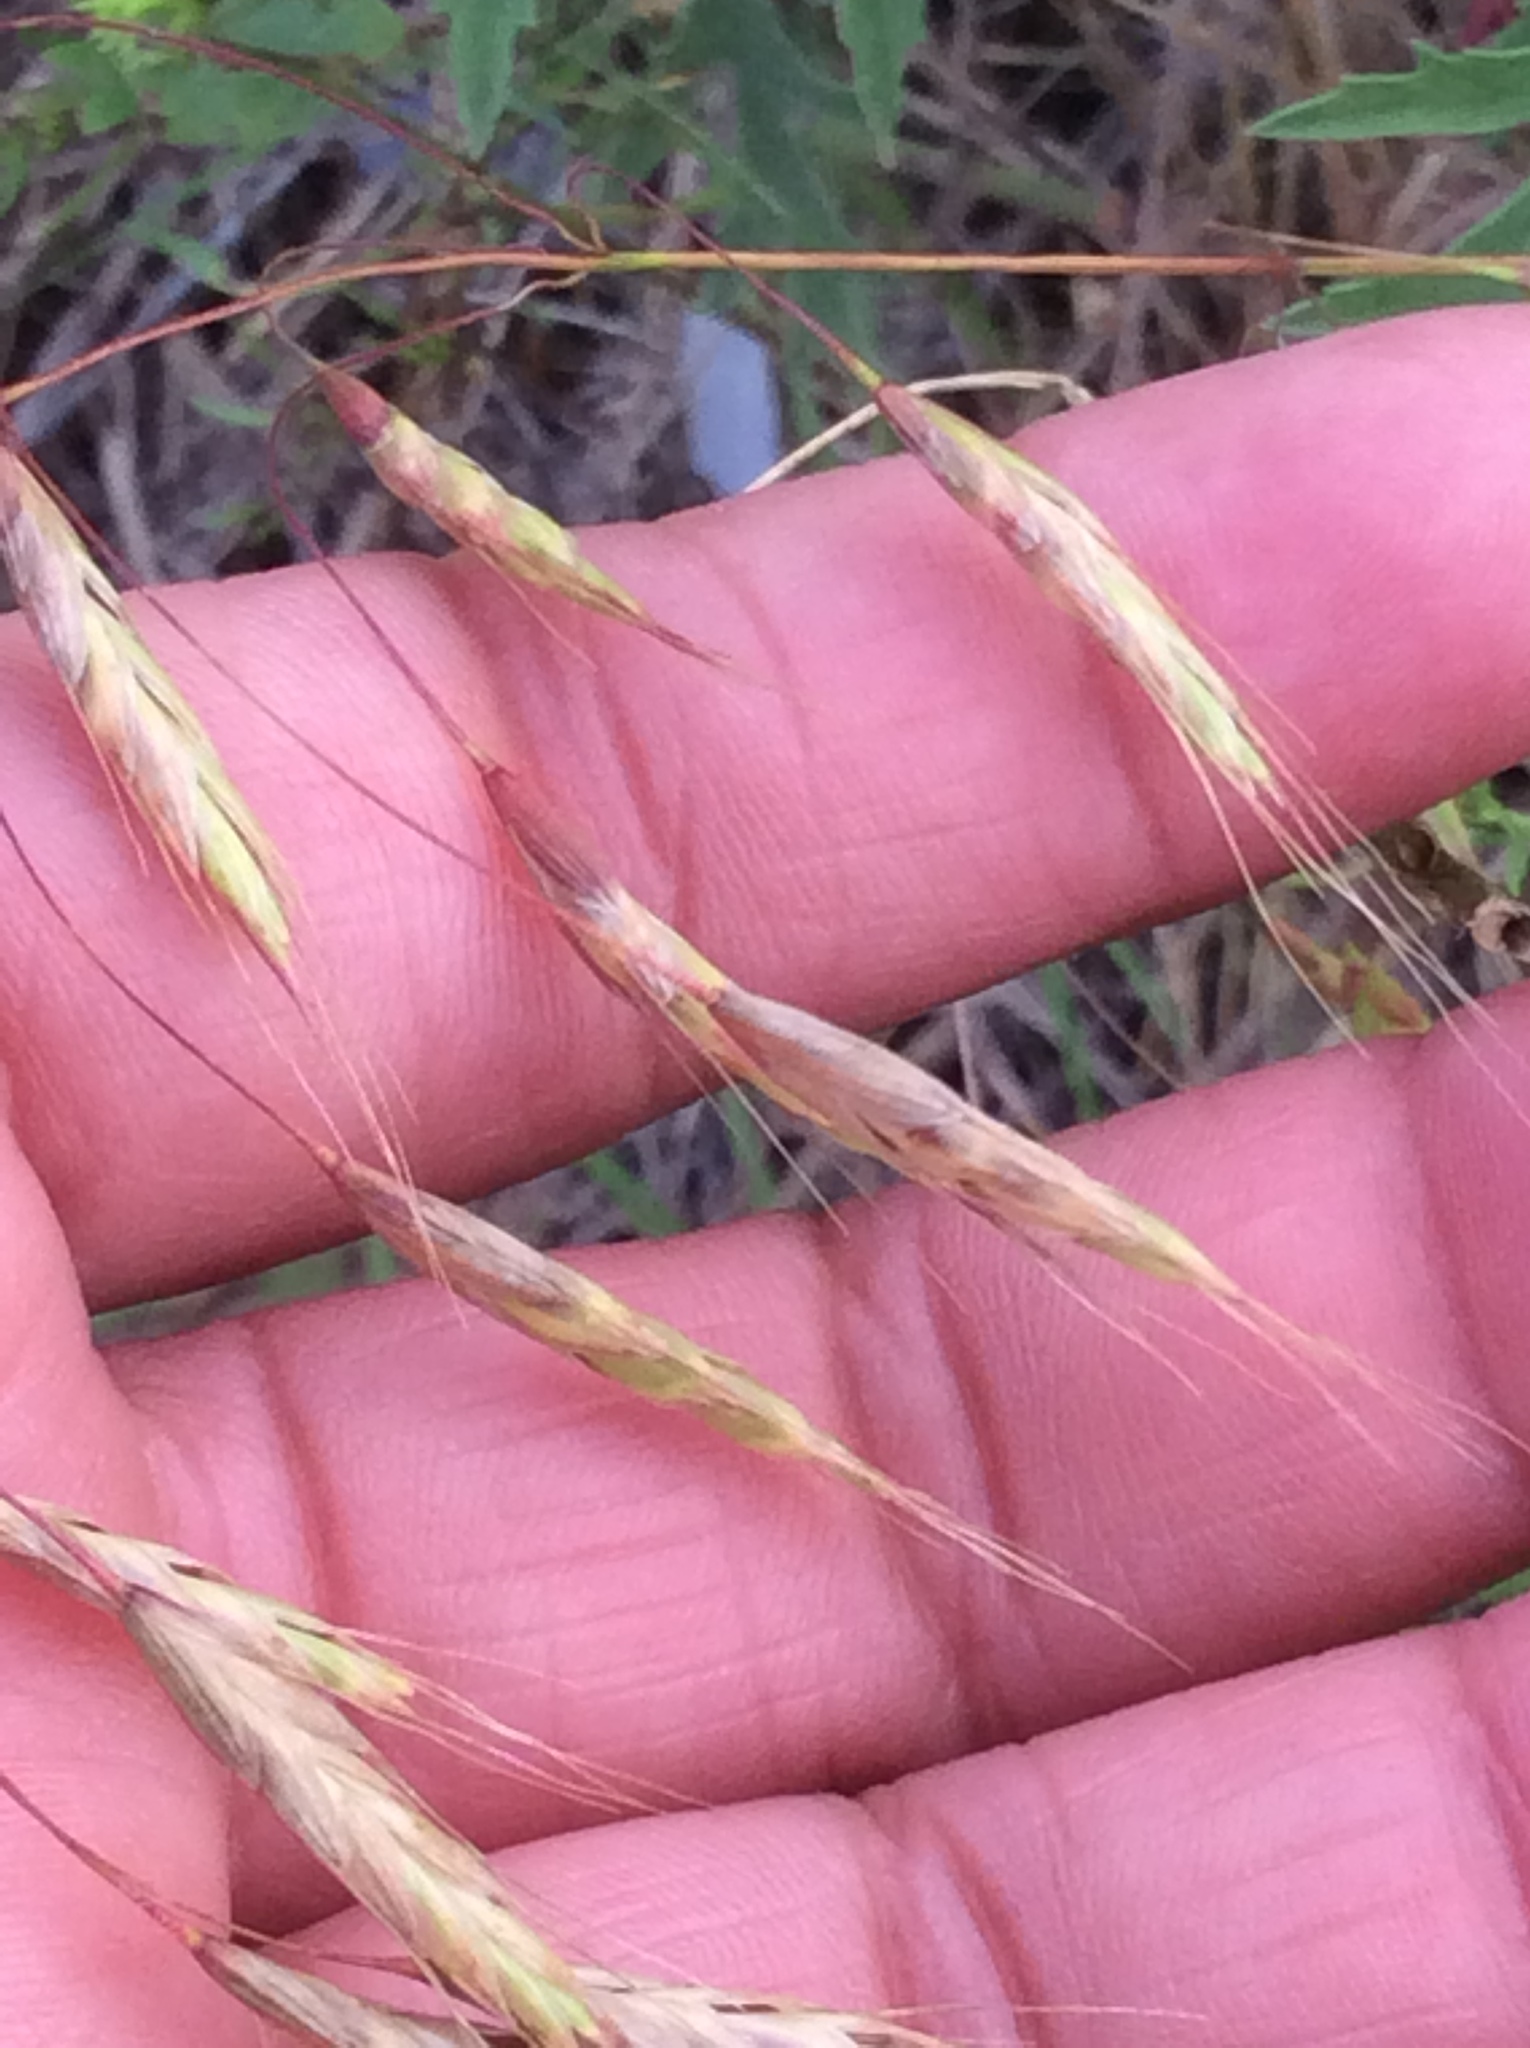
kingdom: Plantae
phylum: Tracheophyta
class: Liliopsida
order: Poales
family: Poaceae
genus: Bromus
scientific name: Bromus japonicus
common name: Japanese brome
